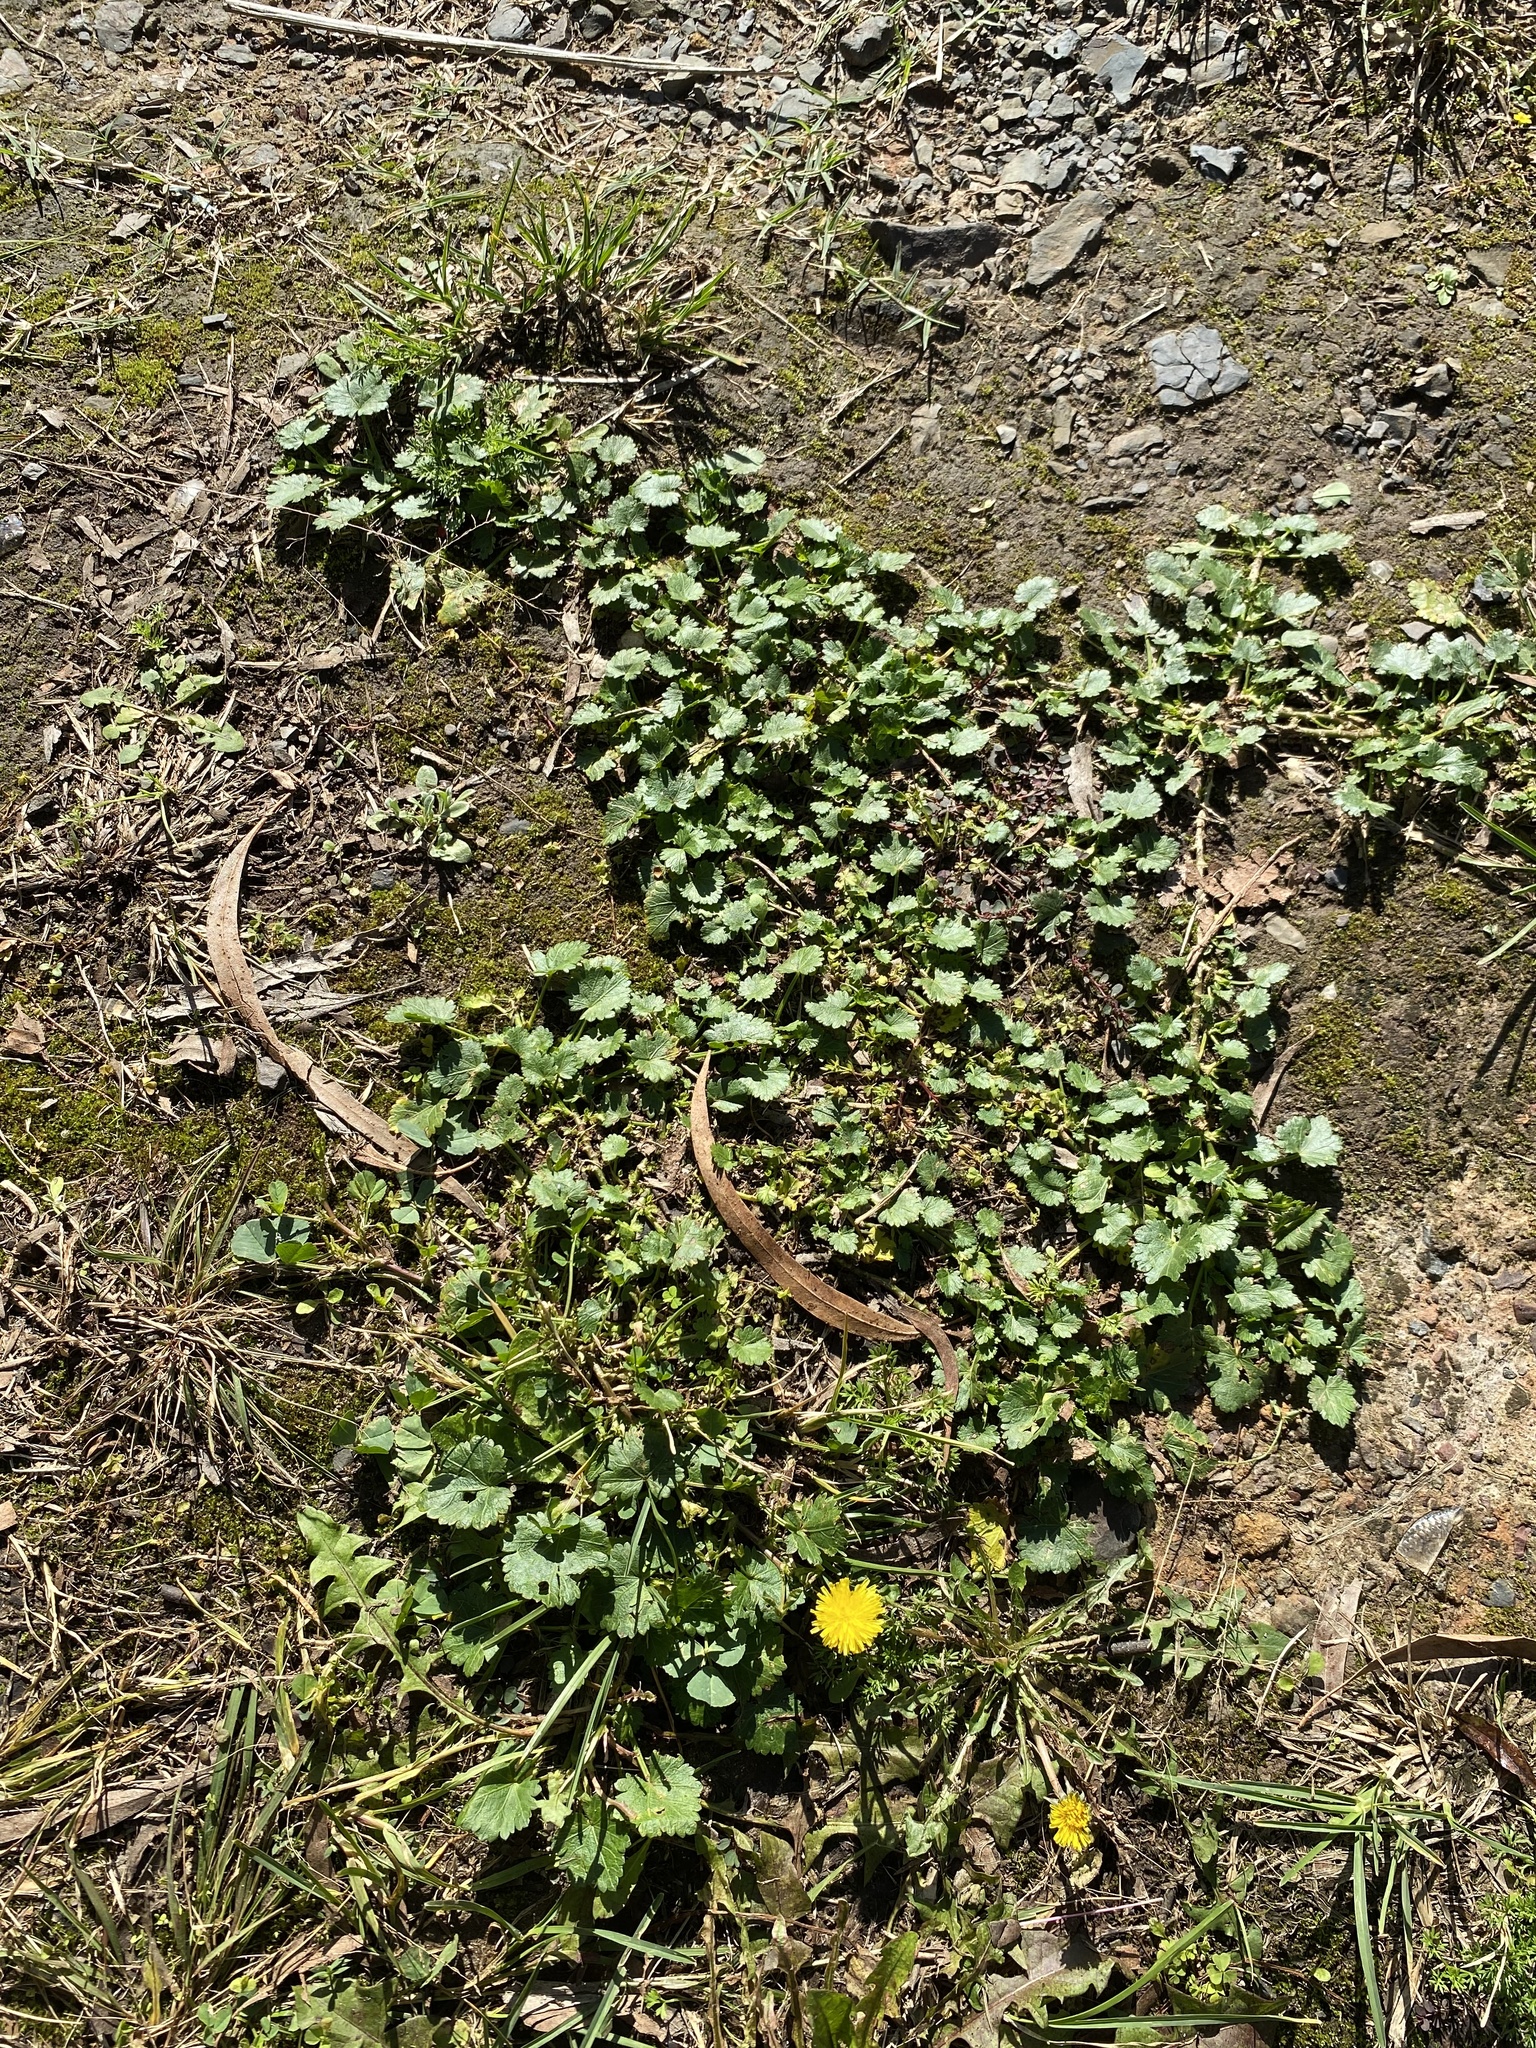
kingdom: Plantae
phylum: Tracheophyta
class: Magnoliopsida
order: Malvales
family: Malvaceae
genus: Modiola
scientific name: Modiola caroliniana
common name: Carolina bristlemallow
